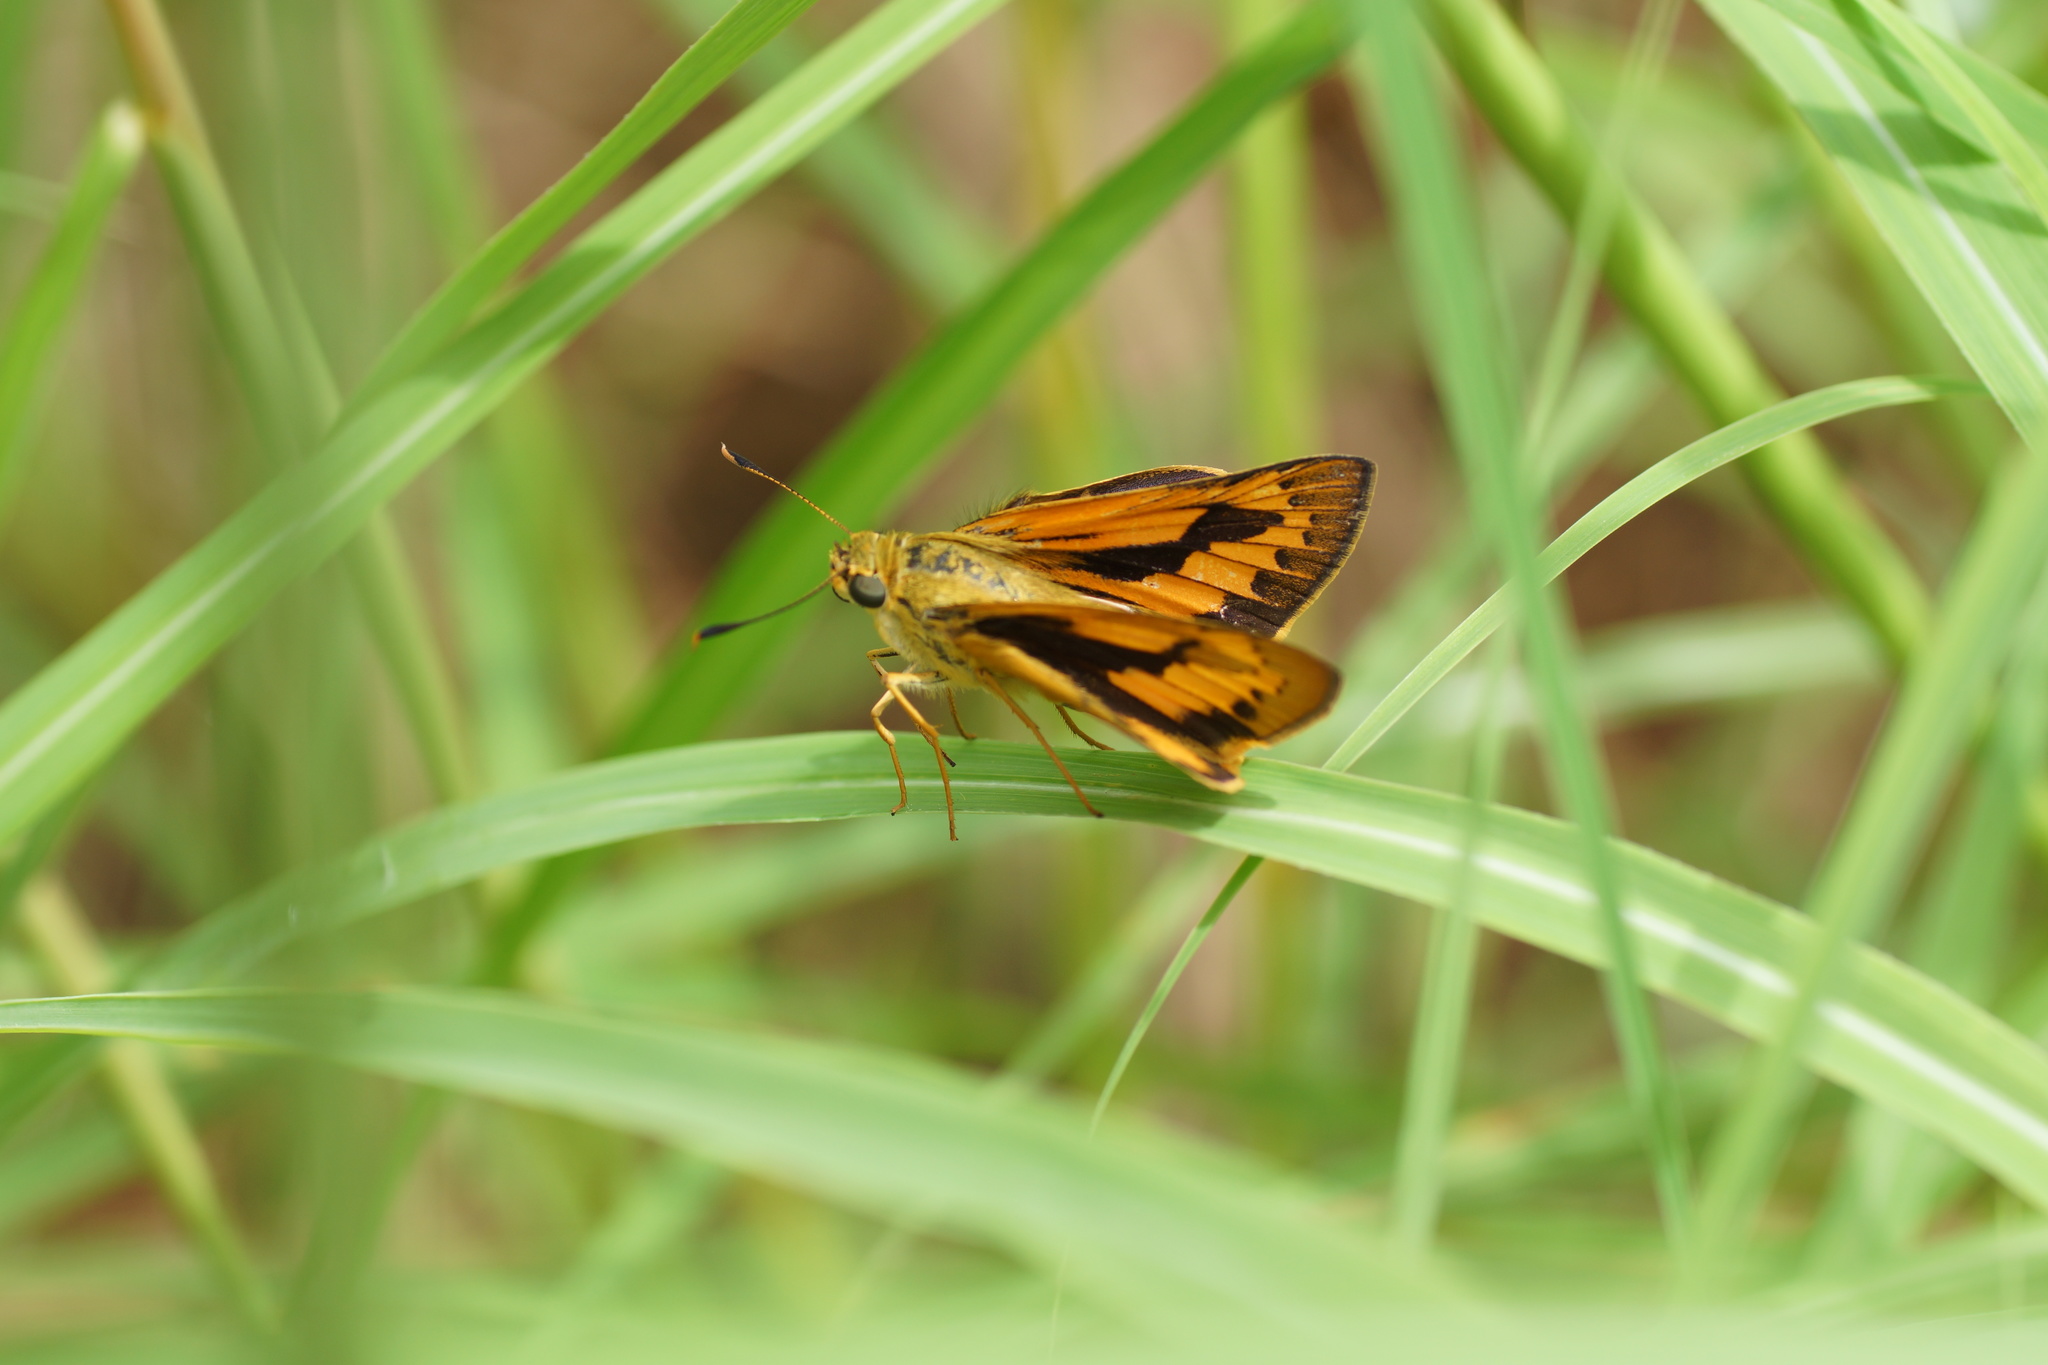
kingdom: Animalia
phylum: Arthropoda
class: Insecta
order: Lepidoptera
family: Hesperiidae
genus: Cephrenes
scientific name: Cephrenes trichopepla
